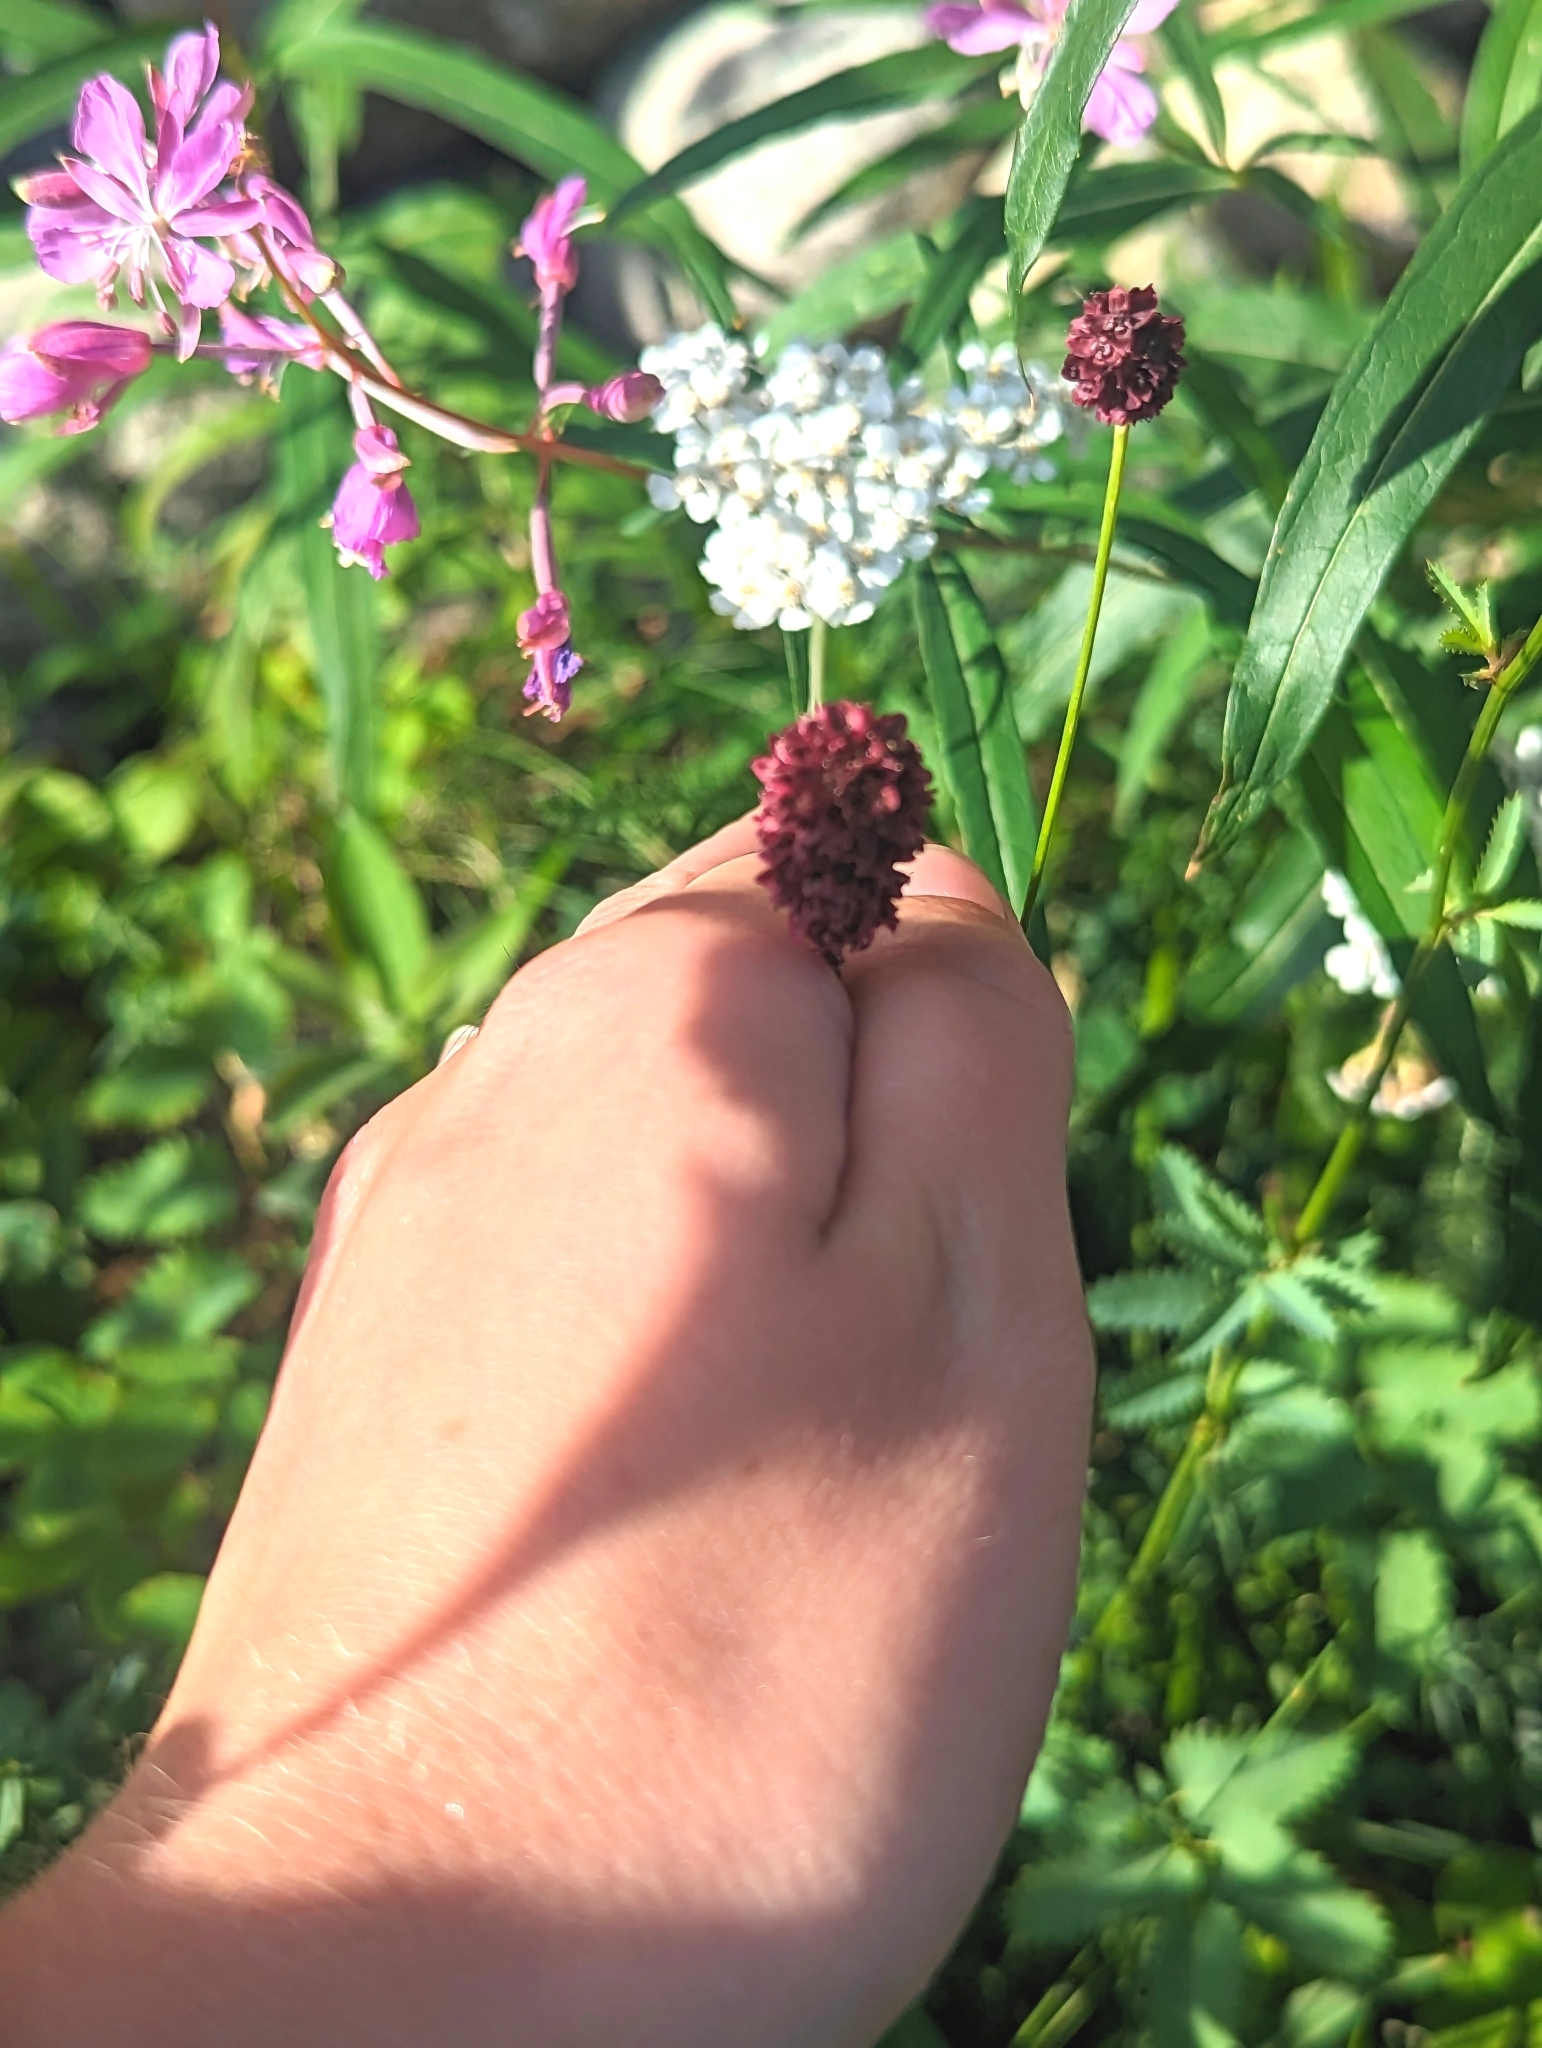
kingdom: Plantae
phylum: Tracheophyta
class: Magnoliopsida
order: Rosales
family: Rosaceae
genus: Sanguisorba
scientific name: Sanguisorba officinalis
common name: Great burnet
